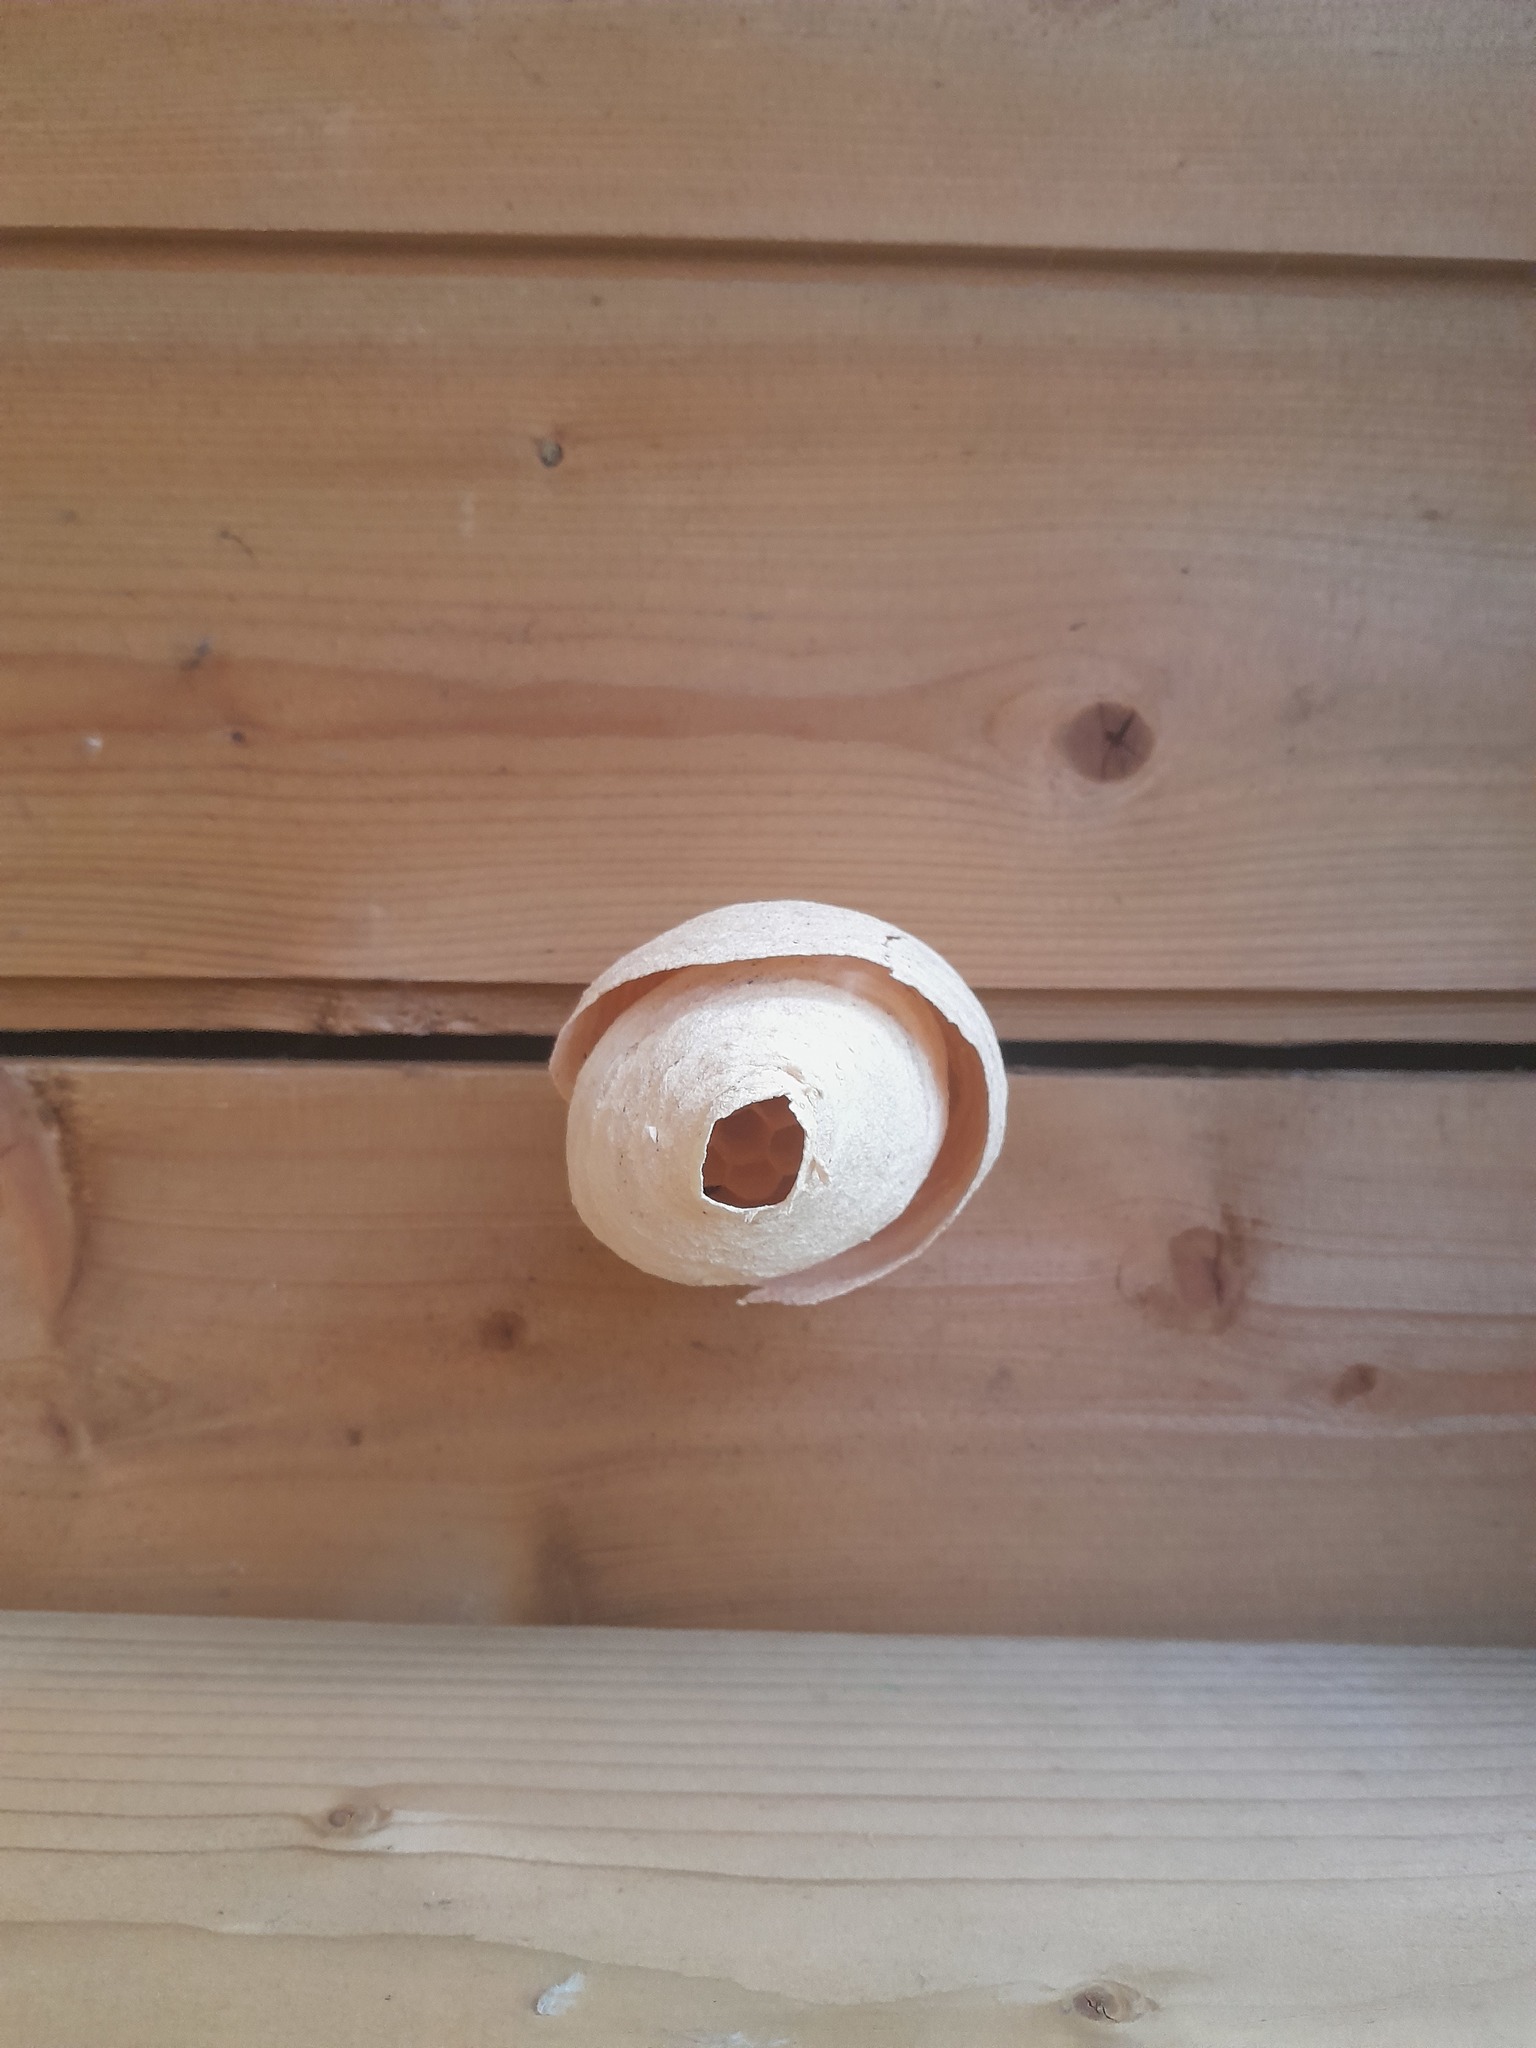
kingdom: Animalia
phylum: Arthropoda
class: Insecta
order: Hymenoptera
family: Vespidae
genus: Vespa
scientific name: Vespa velutina
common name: Asian hornet
